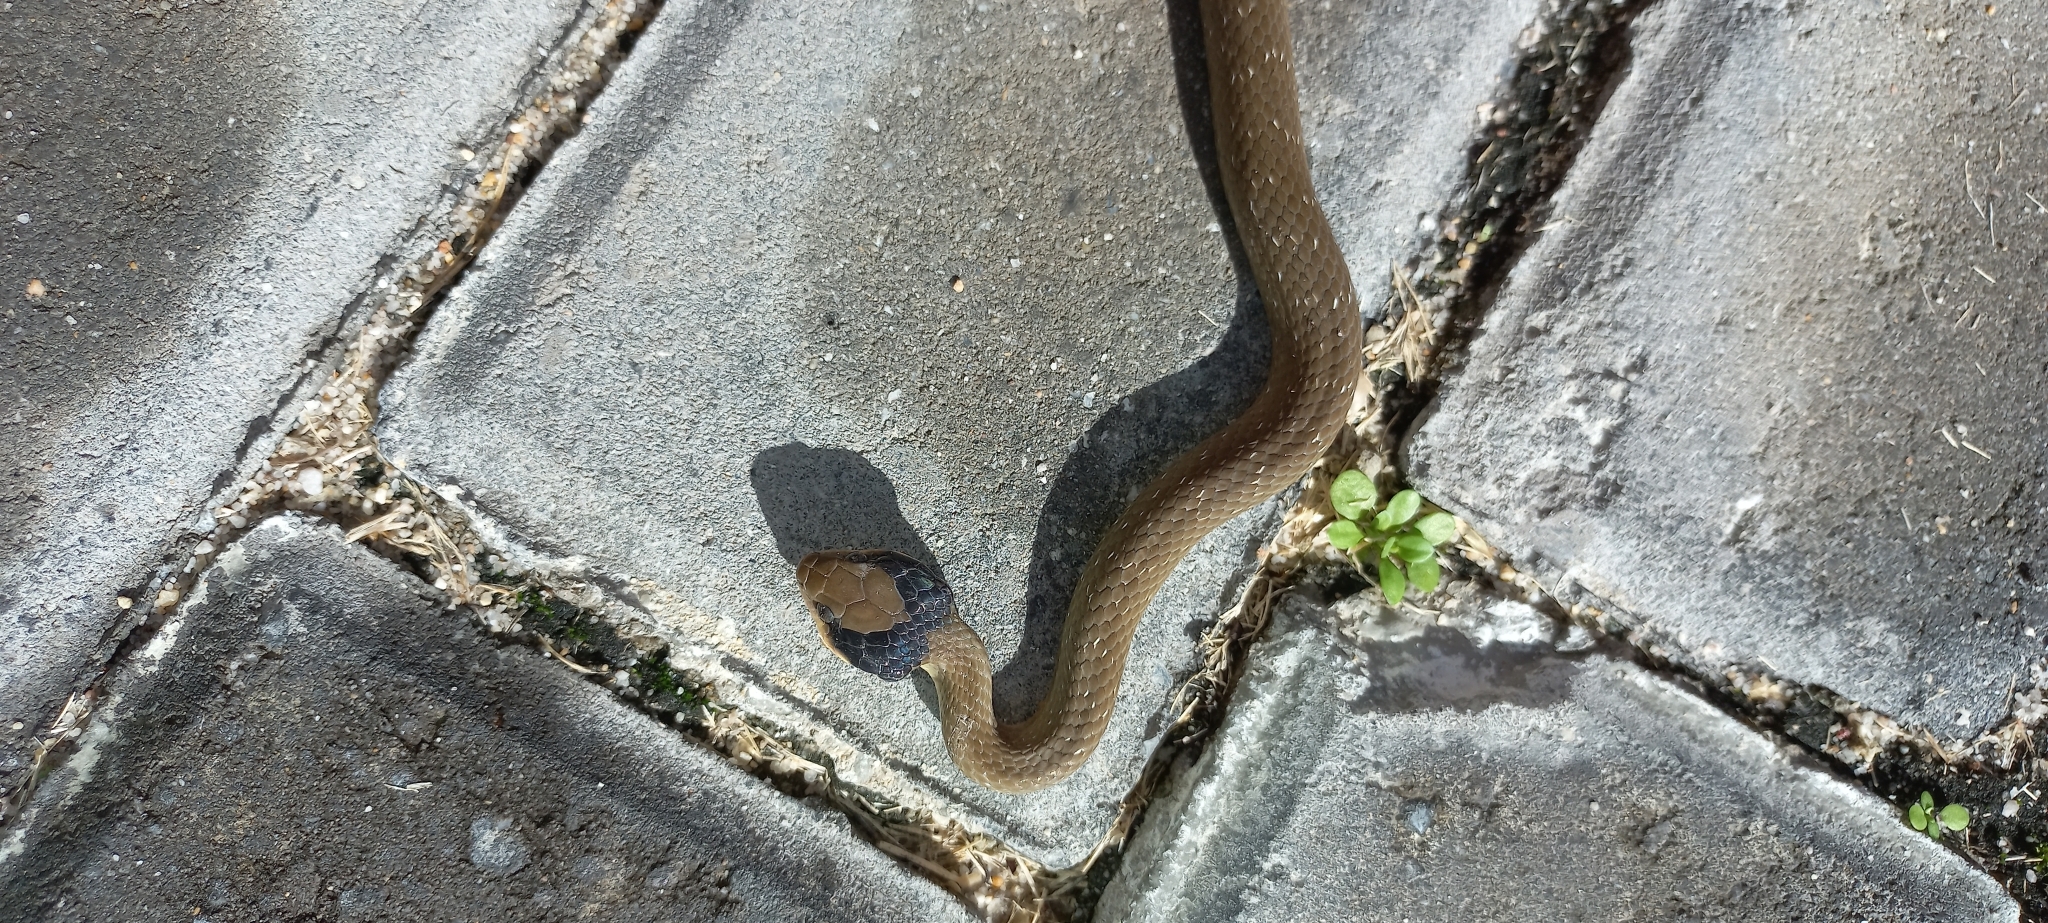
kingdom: Animalia
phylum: Chordata
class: Squamata
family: Colubridae
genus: Crotaphopeltis
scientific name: Crotaphopeltis hotamboeia
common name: Red-lipped snake
